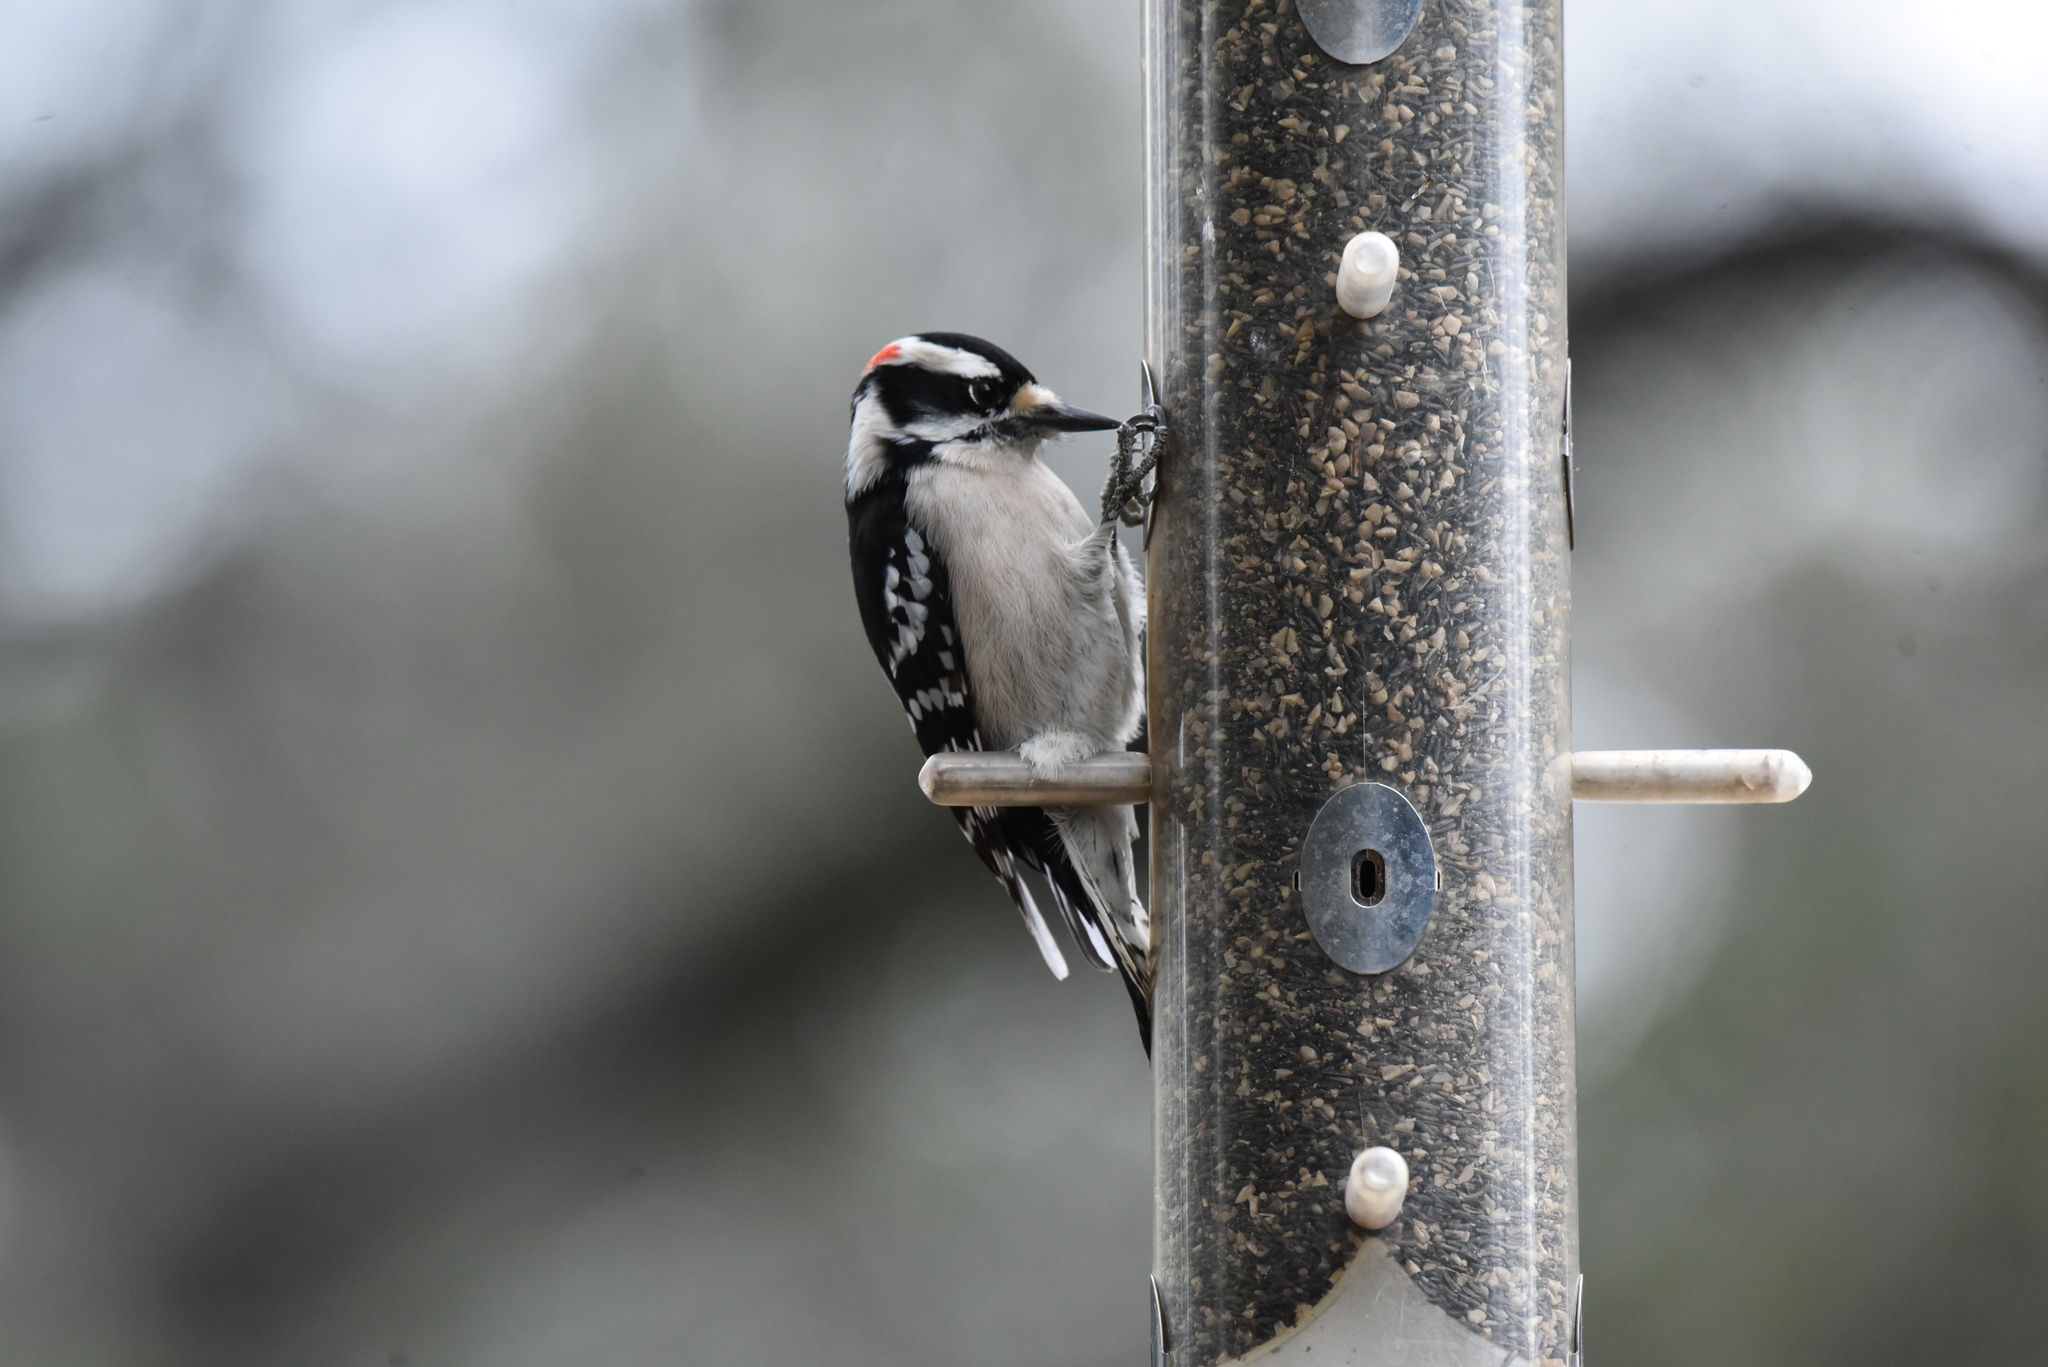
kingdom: Animalia
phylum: Chordata
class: Aves
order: Piciformes
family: Picidae
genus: Dryobates
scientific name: Dryobates pubescens
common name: Downy woodpecker
